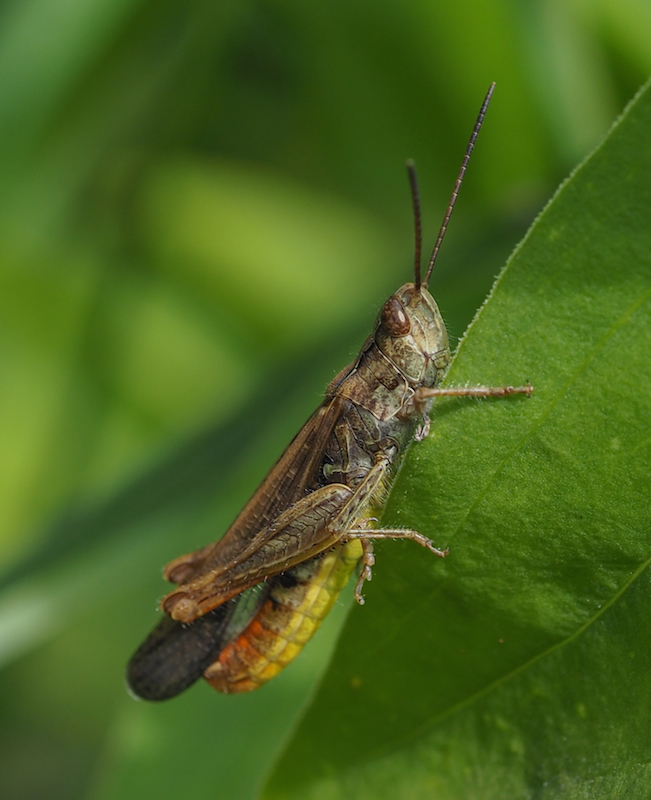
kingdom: Animalia
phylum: Arthropoda
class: Insecta
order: Orthoptera
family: Acrididae
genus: Chorthippus
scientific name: Chorthippus brunneus
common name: Field grasshopper
